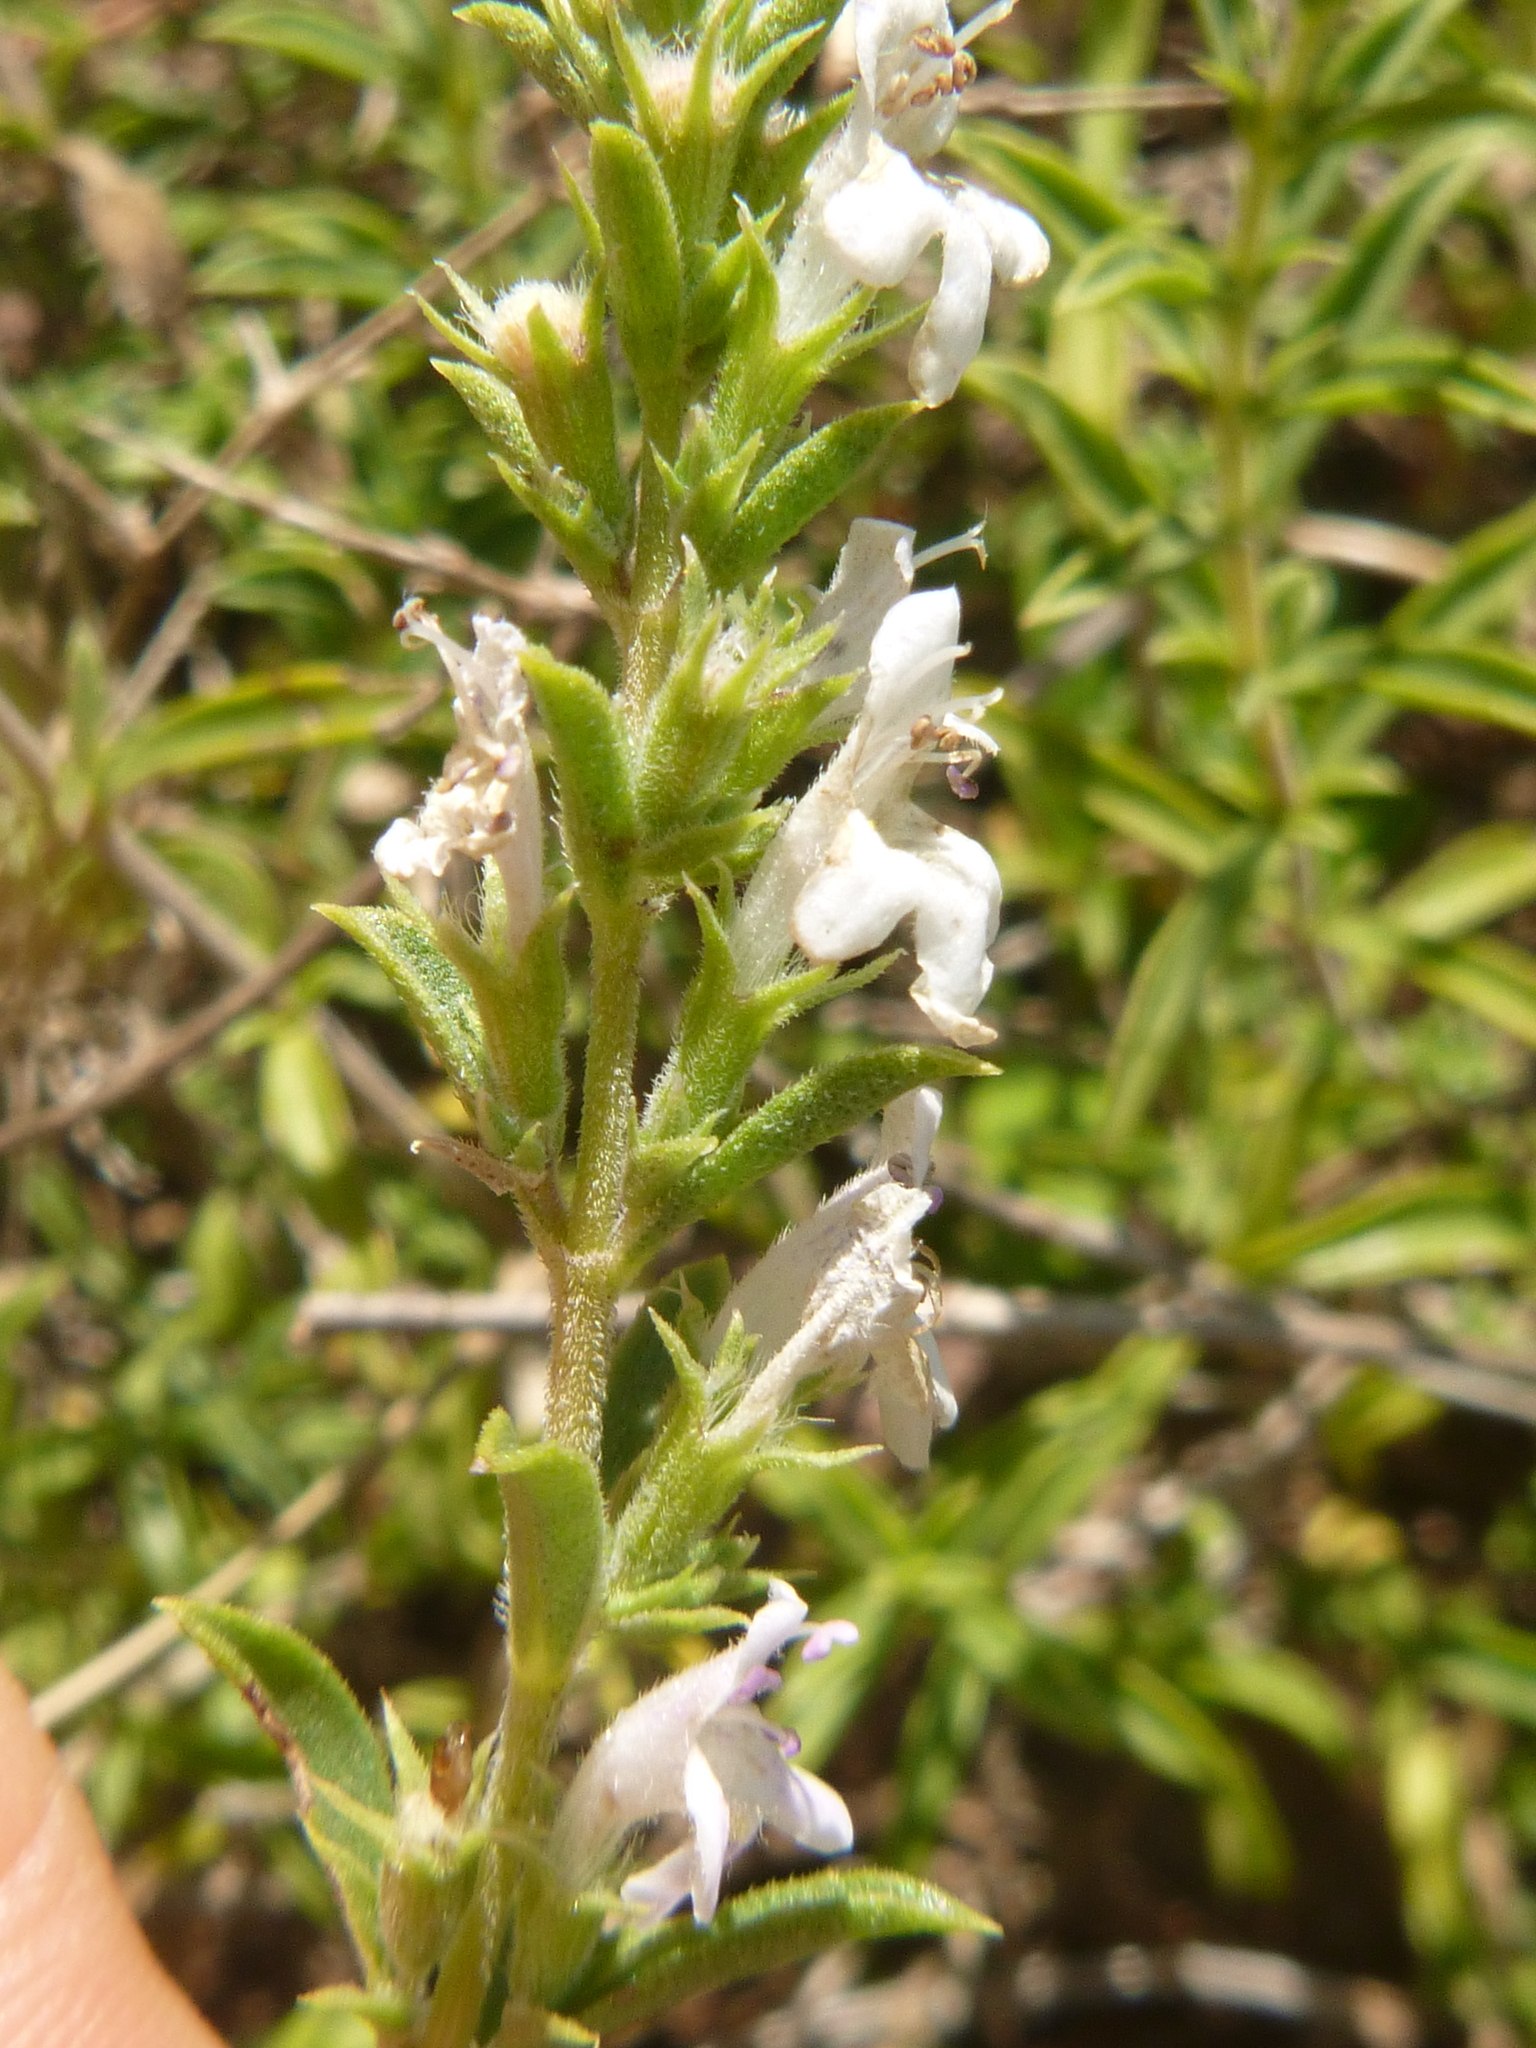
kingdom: Plantae
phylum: Tracheophyta
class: Magnoliopsida
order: Lamiales
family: Lamiaceae
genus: Satureja
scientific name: Satureja montana
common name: Winter savory
